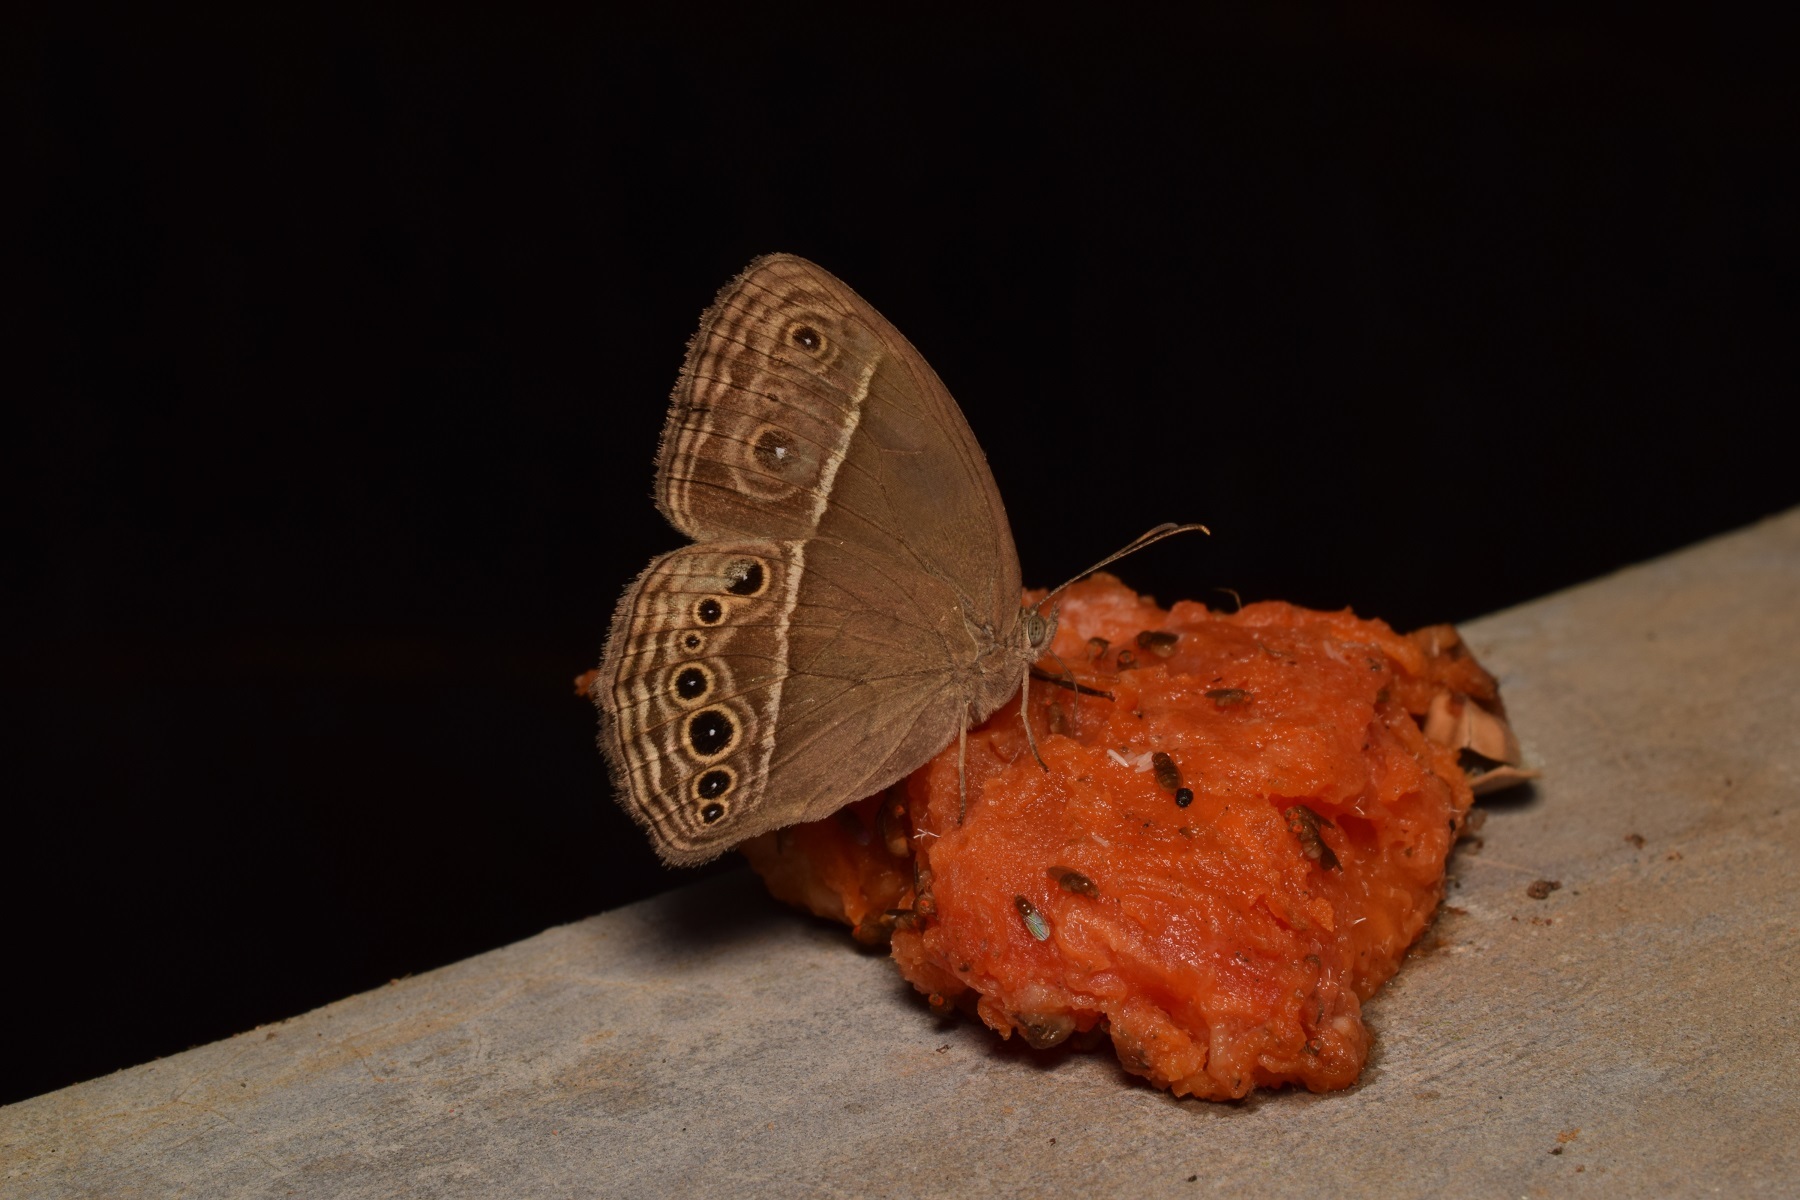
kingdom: Animalia
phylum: Arthropoda
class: Insecta
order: Lepidoptera
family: Nymphalidae
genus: Mycalesis
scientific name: Mycalesis mineus
